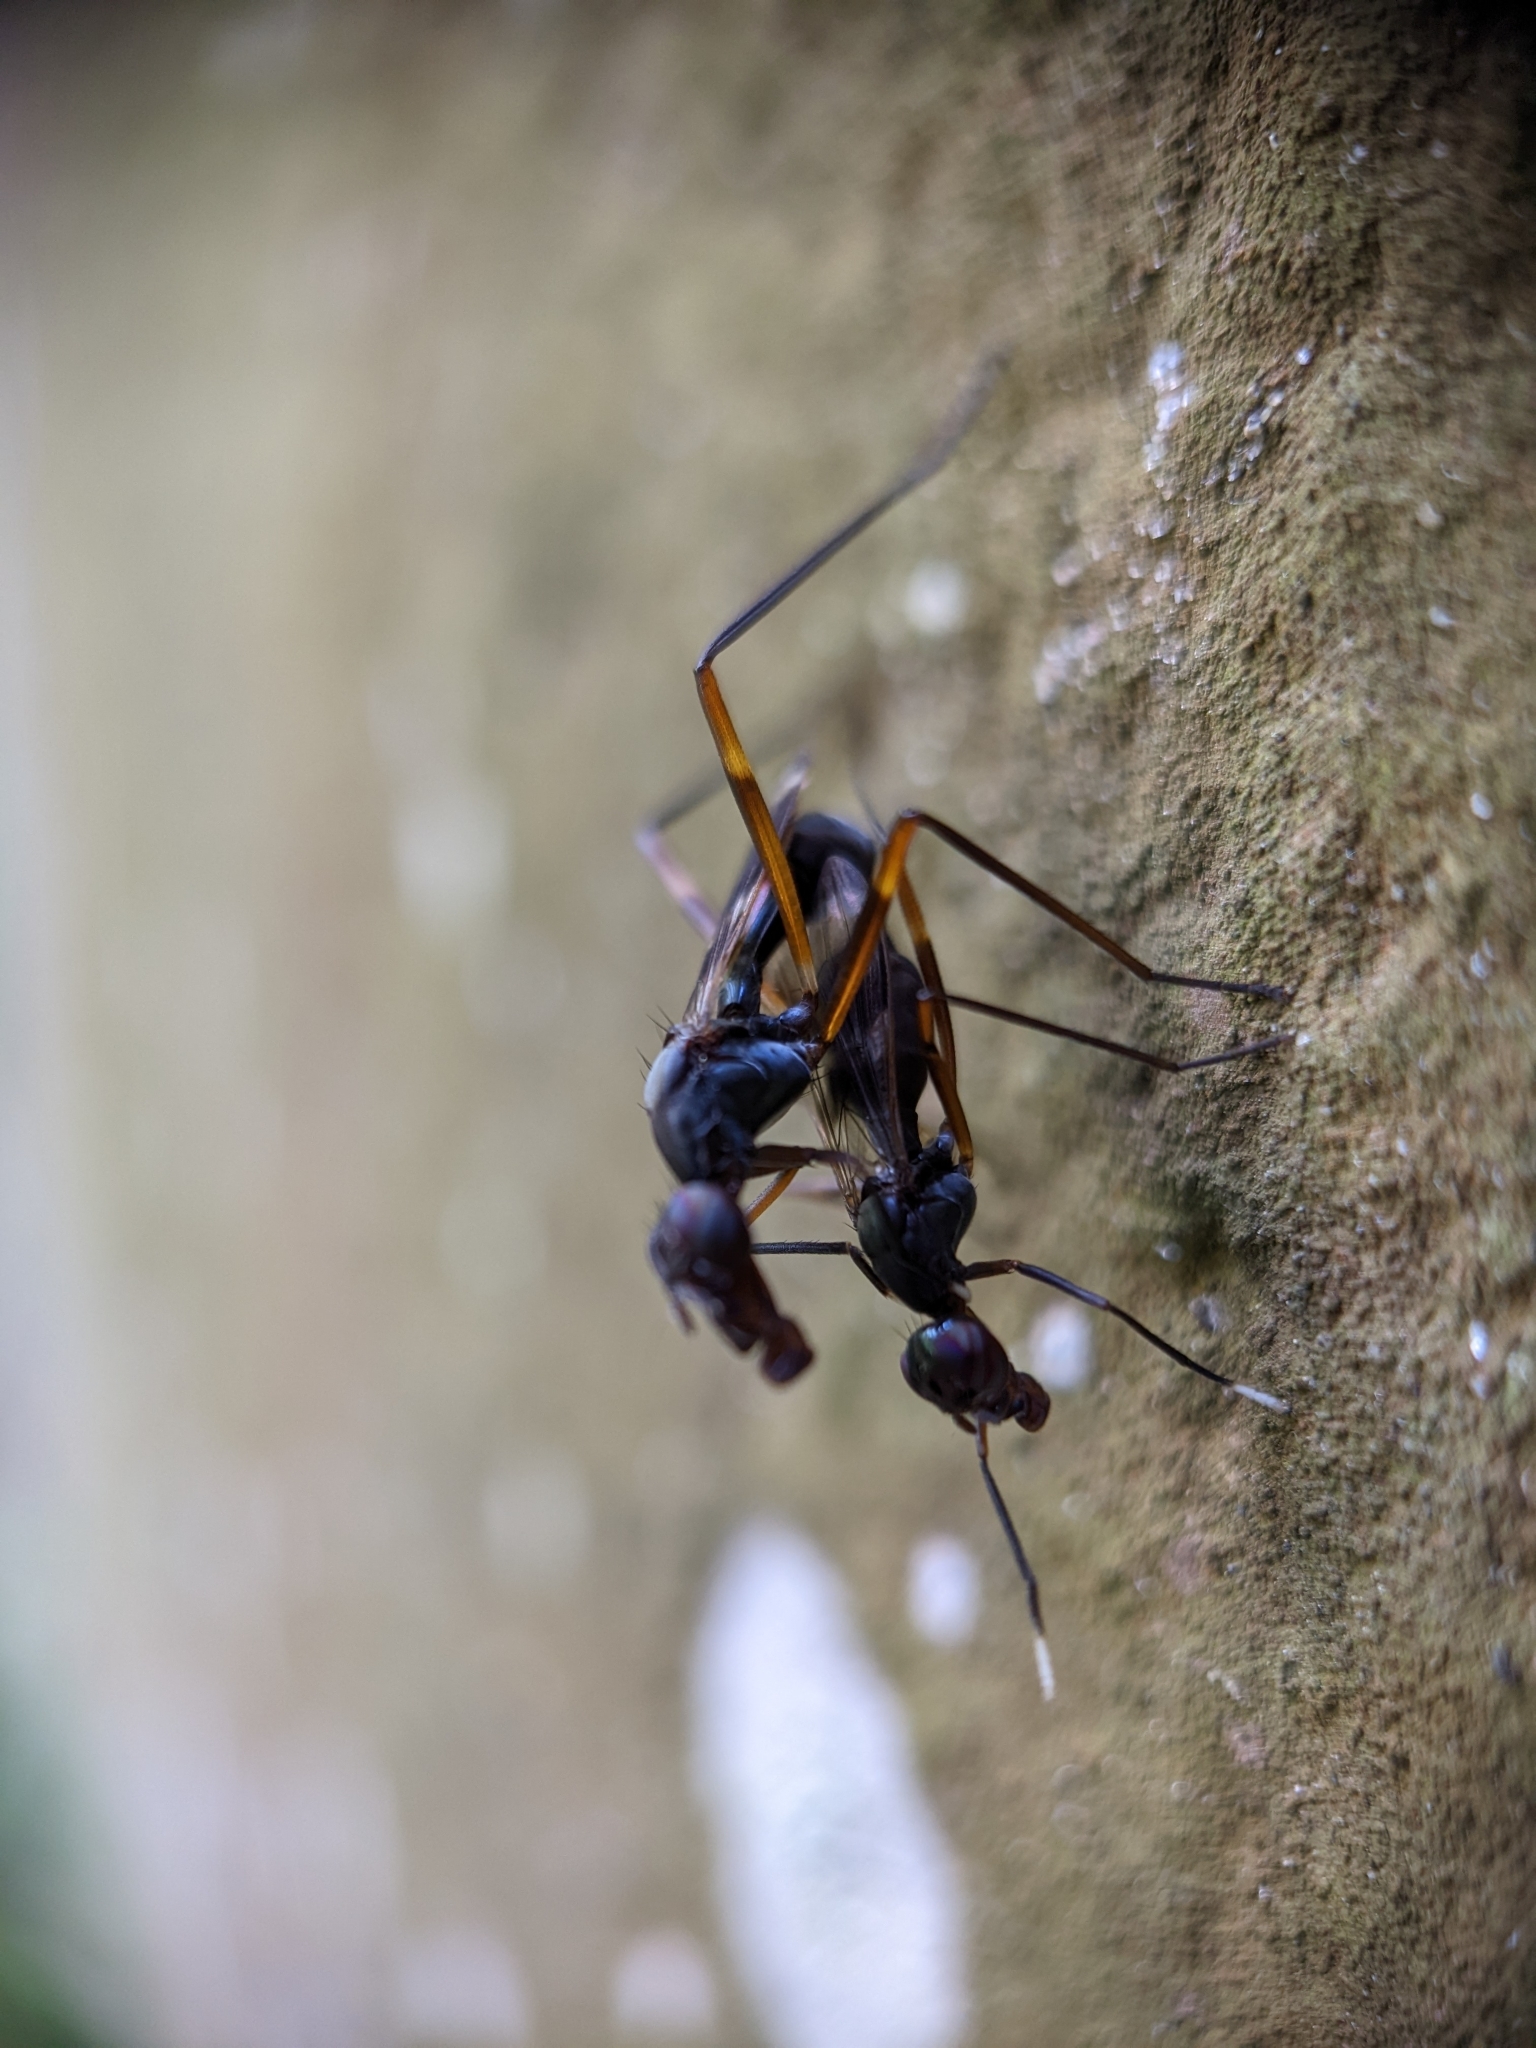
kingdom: Animalia
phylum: Arthropoda
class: Insecta
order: Diptera
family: Micropezidae
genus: Taeniaptera
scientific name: Taeniaptera trivittata
